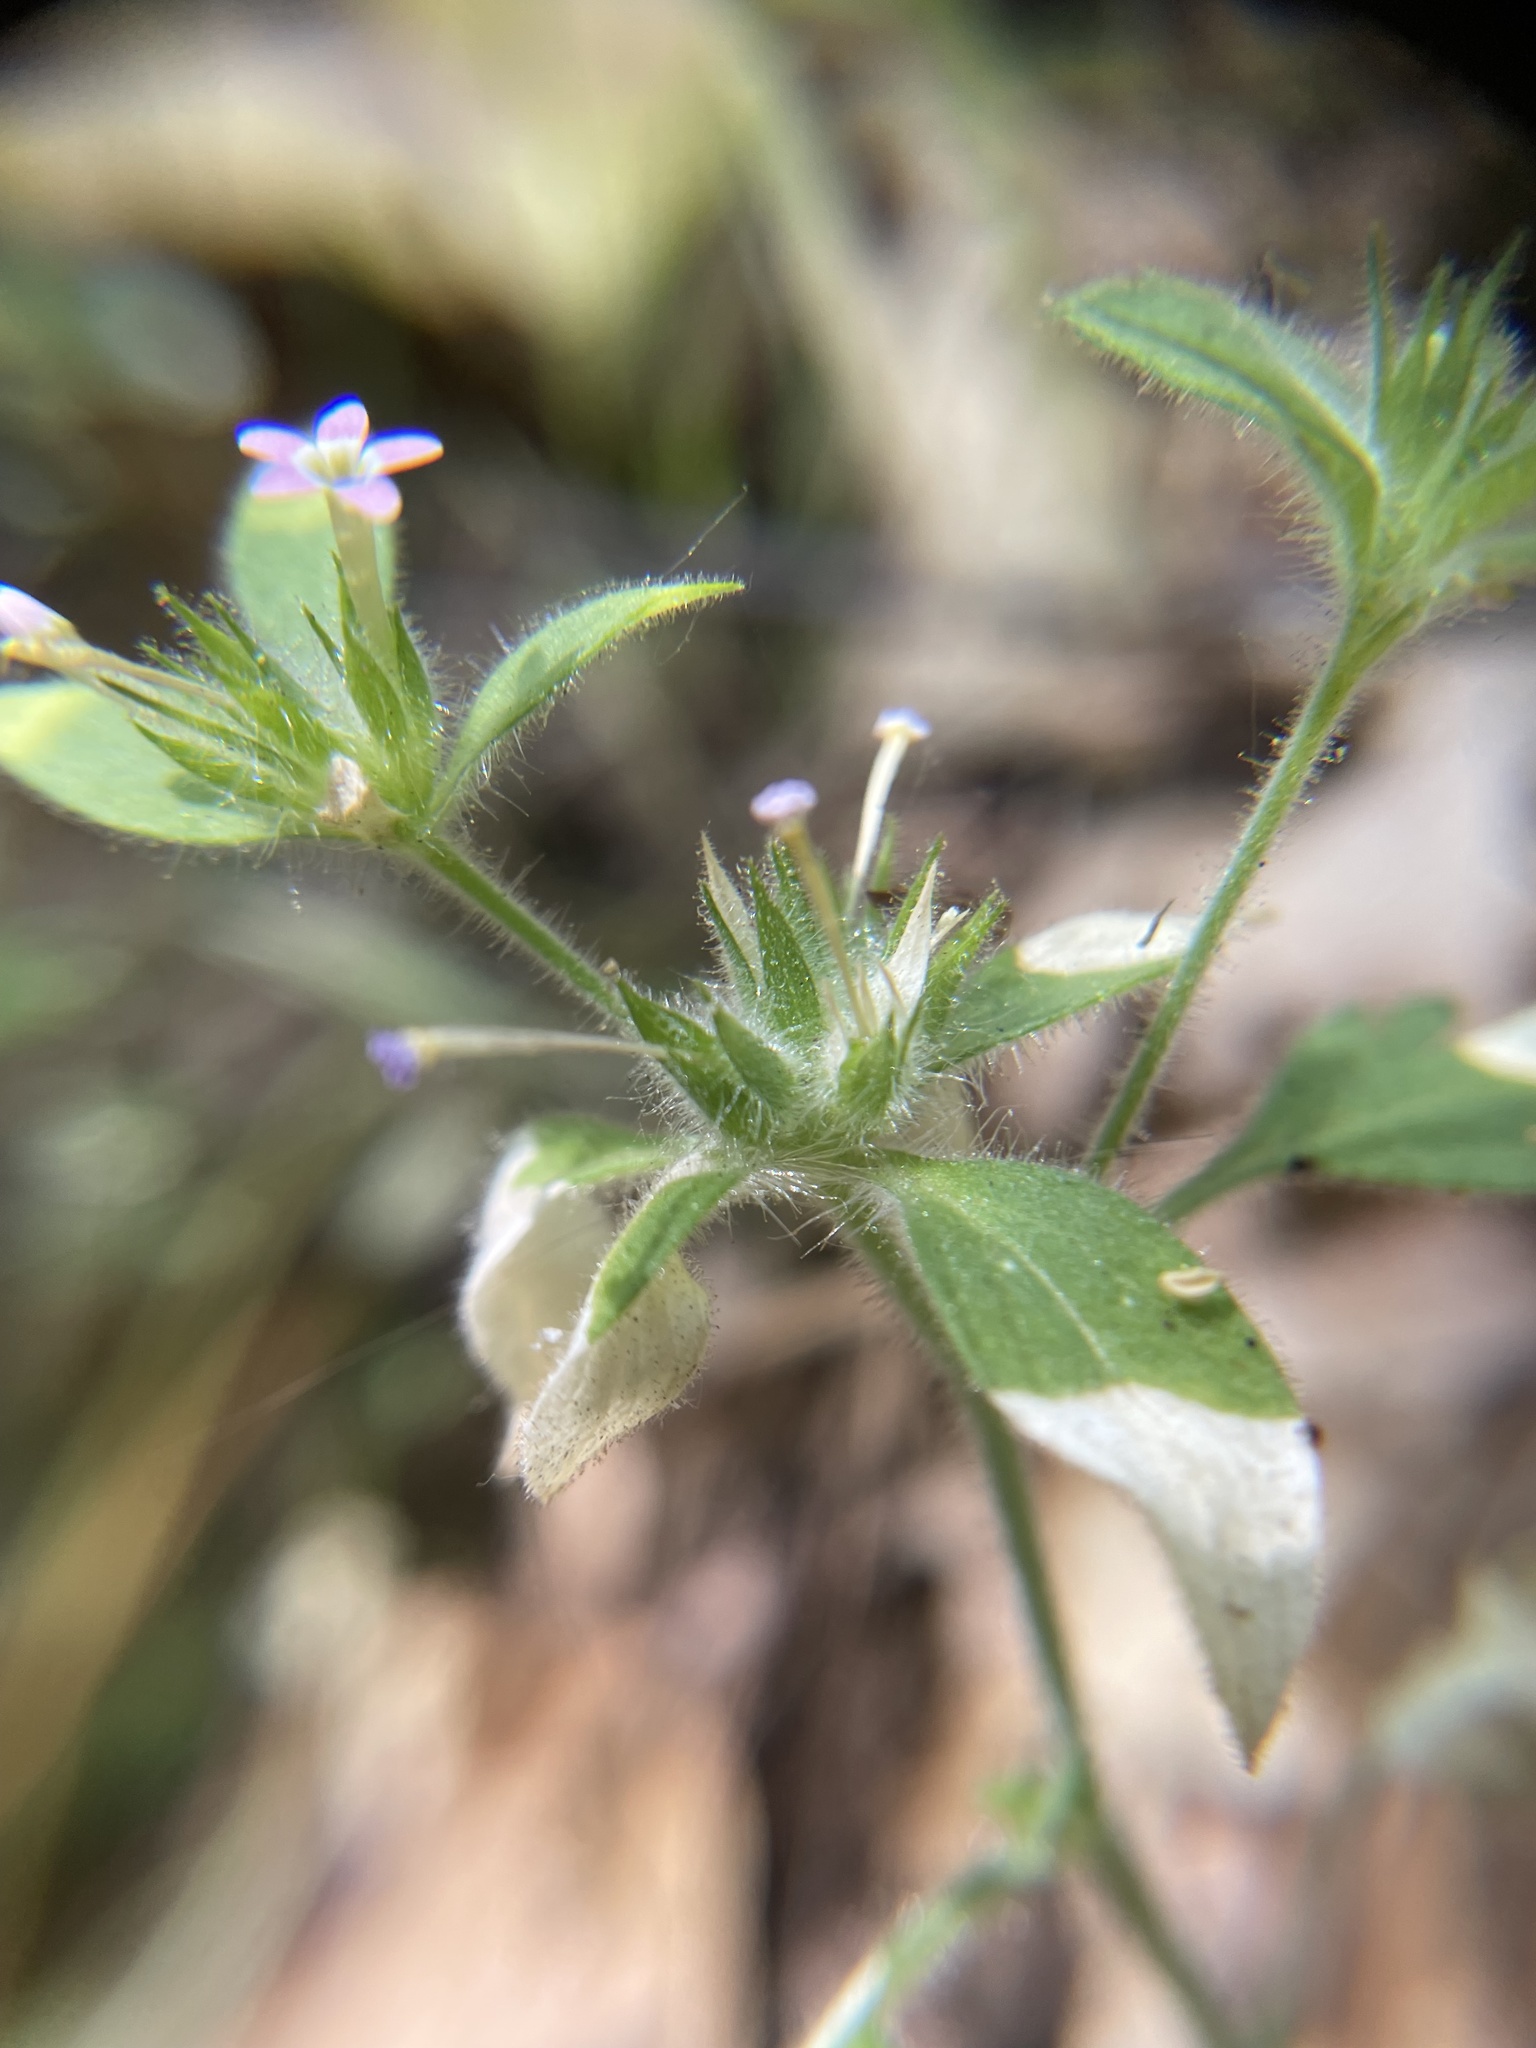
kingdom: Plantae
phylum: Tracheophyta
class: Magnoliopsida
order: Ericales
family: Polemoniaceae
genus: Collomia
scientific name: Collomia heterophylla
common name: Variable-leaved collomia
